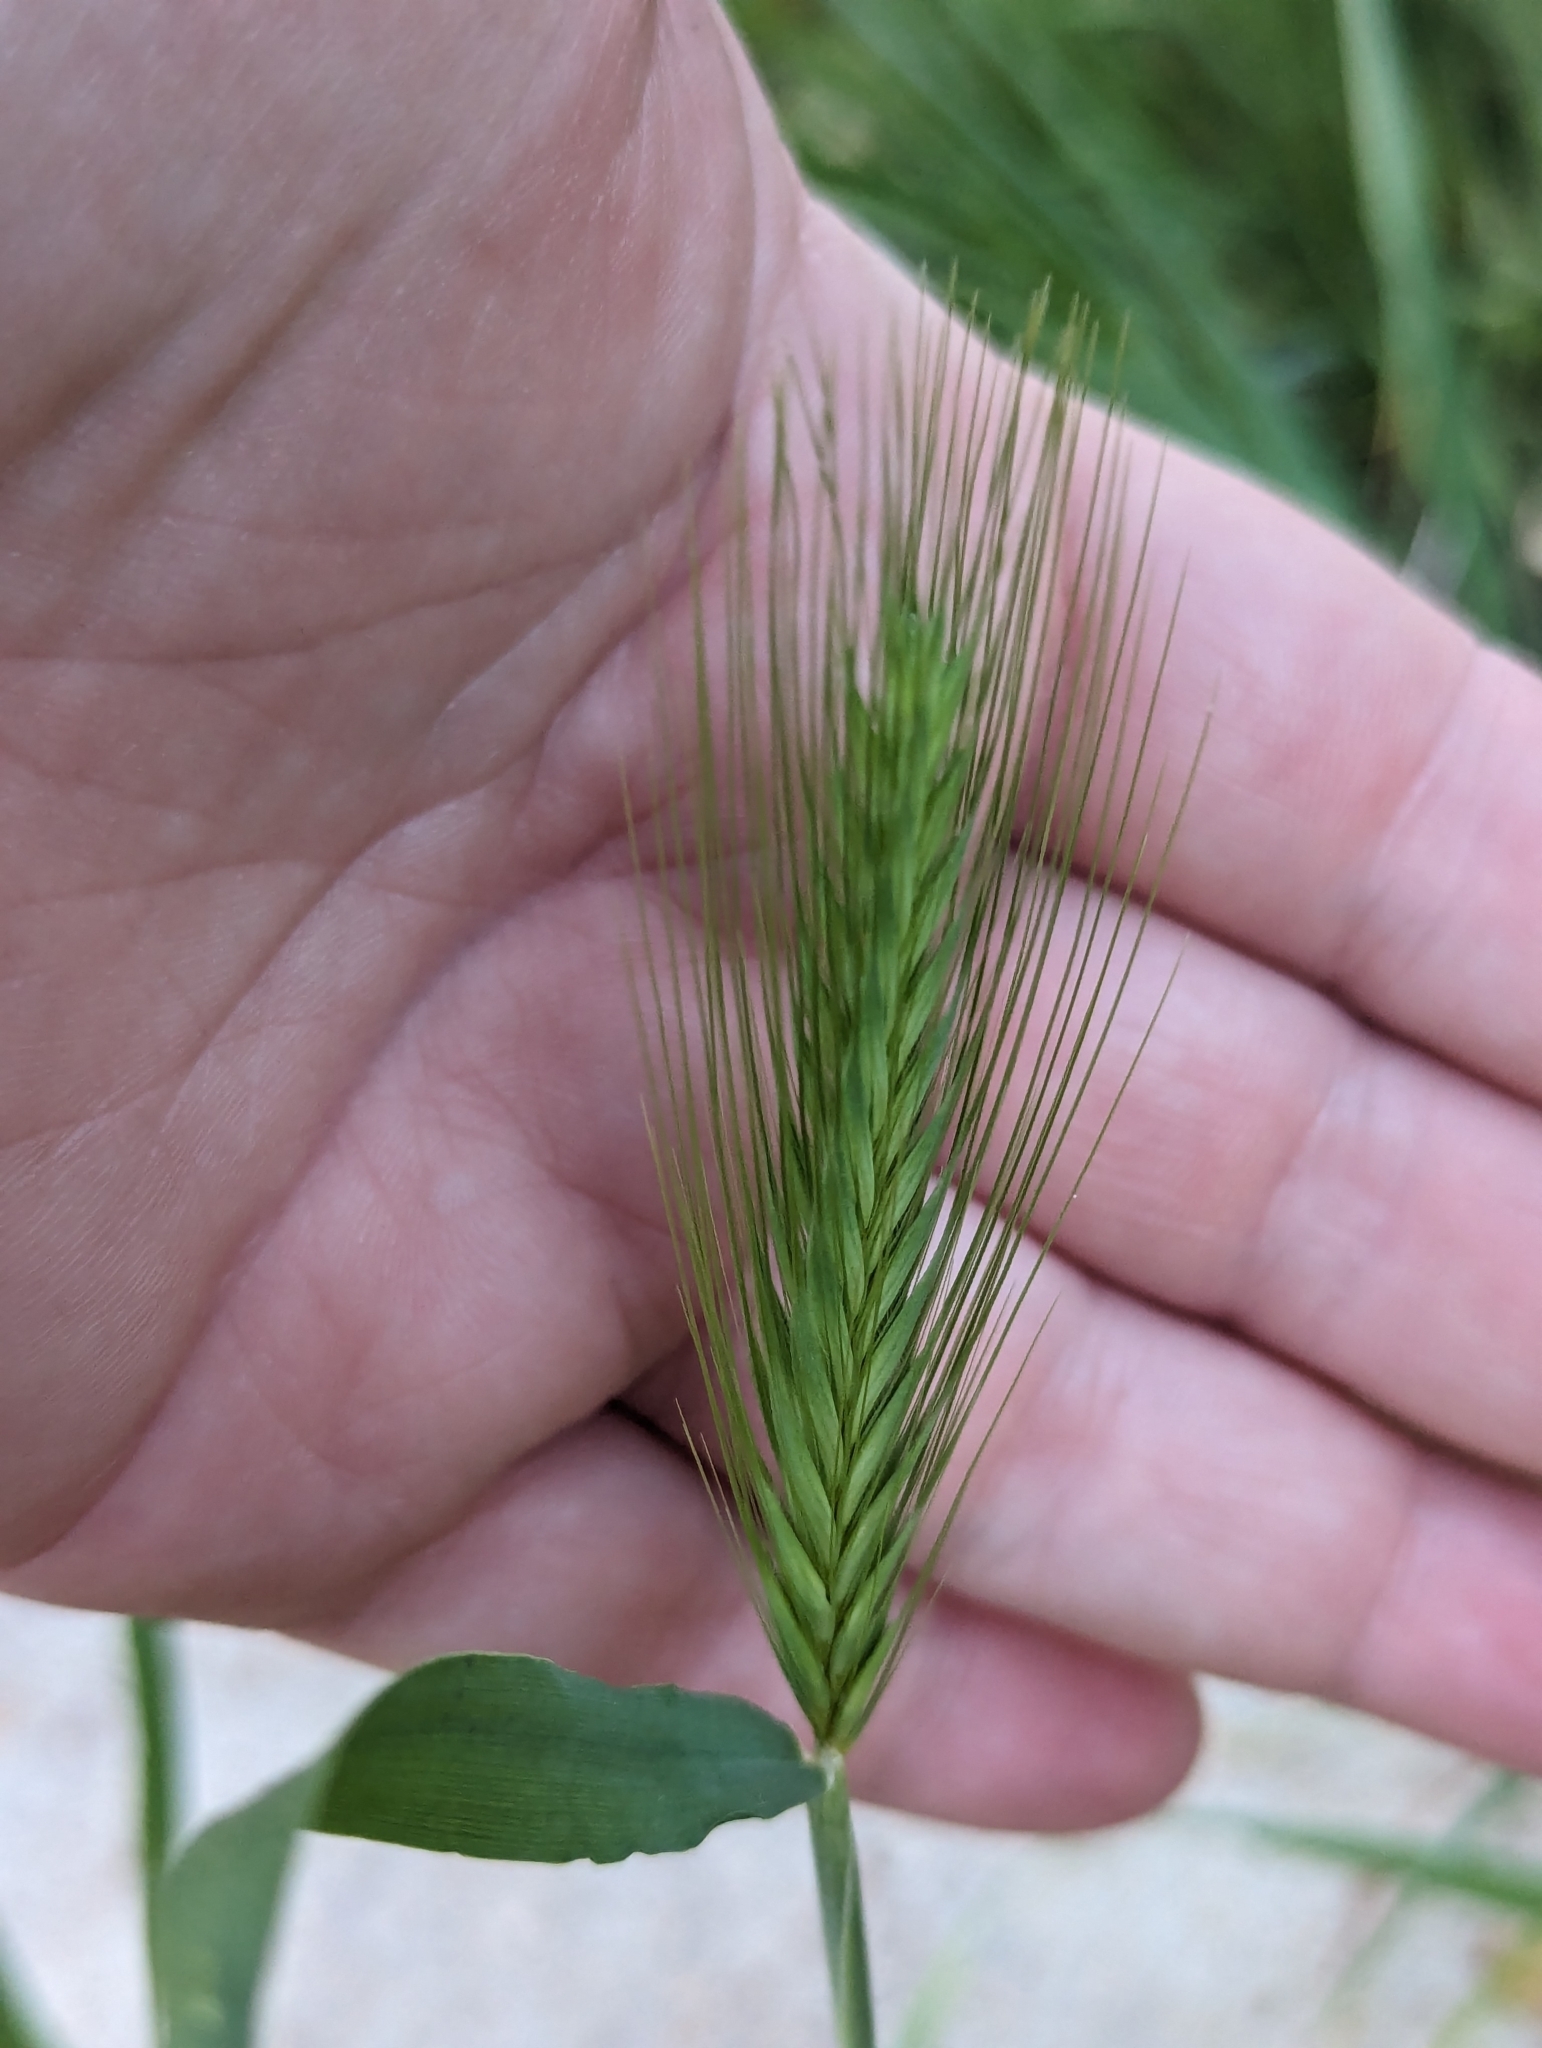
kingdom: Plantae
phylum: Tracheophyta
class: Liliopsida
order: Poales
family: Poaceae
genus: Hordeum
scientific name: Hordeum murinum
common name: Wall barley
